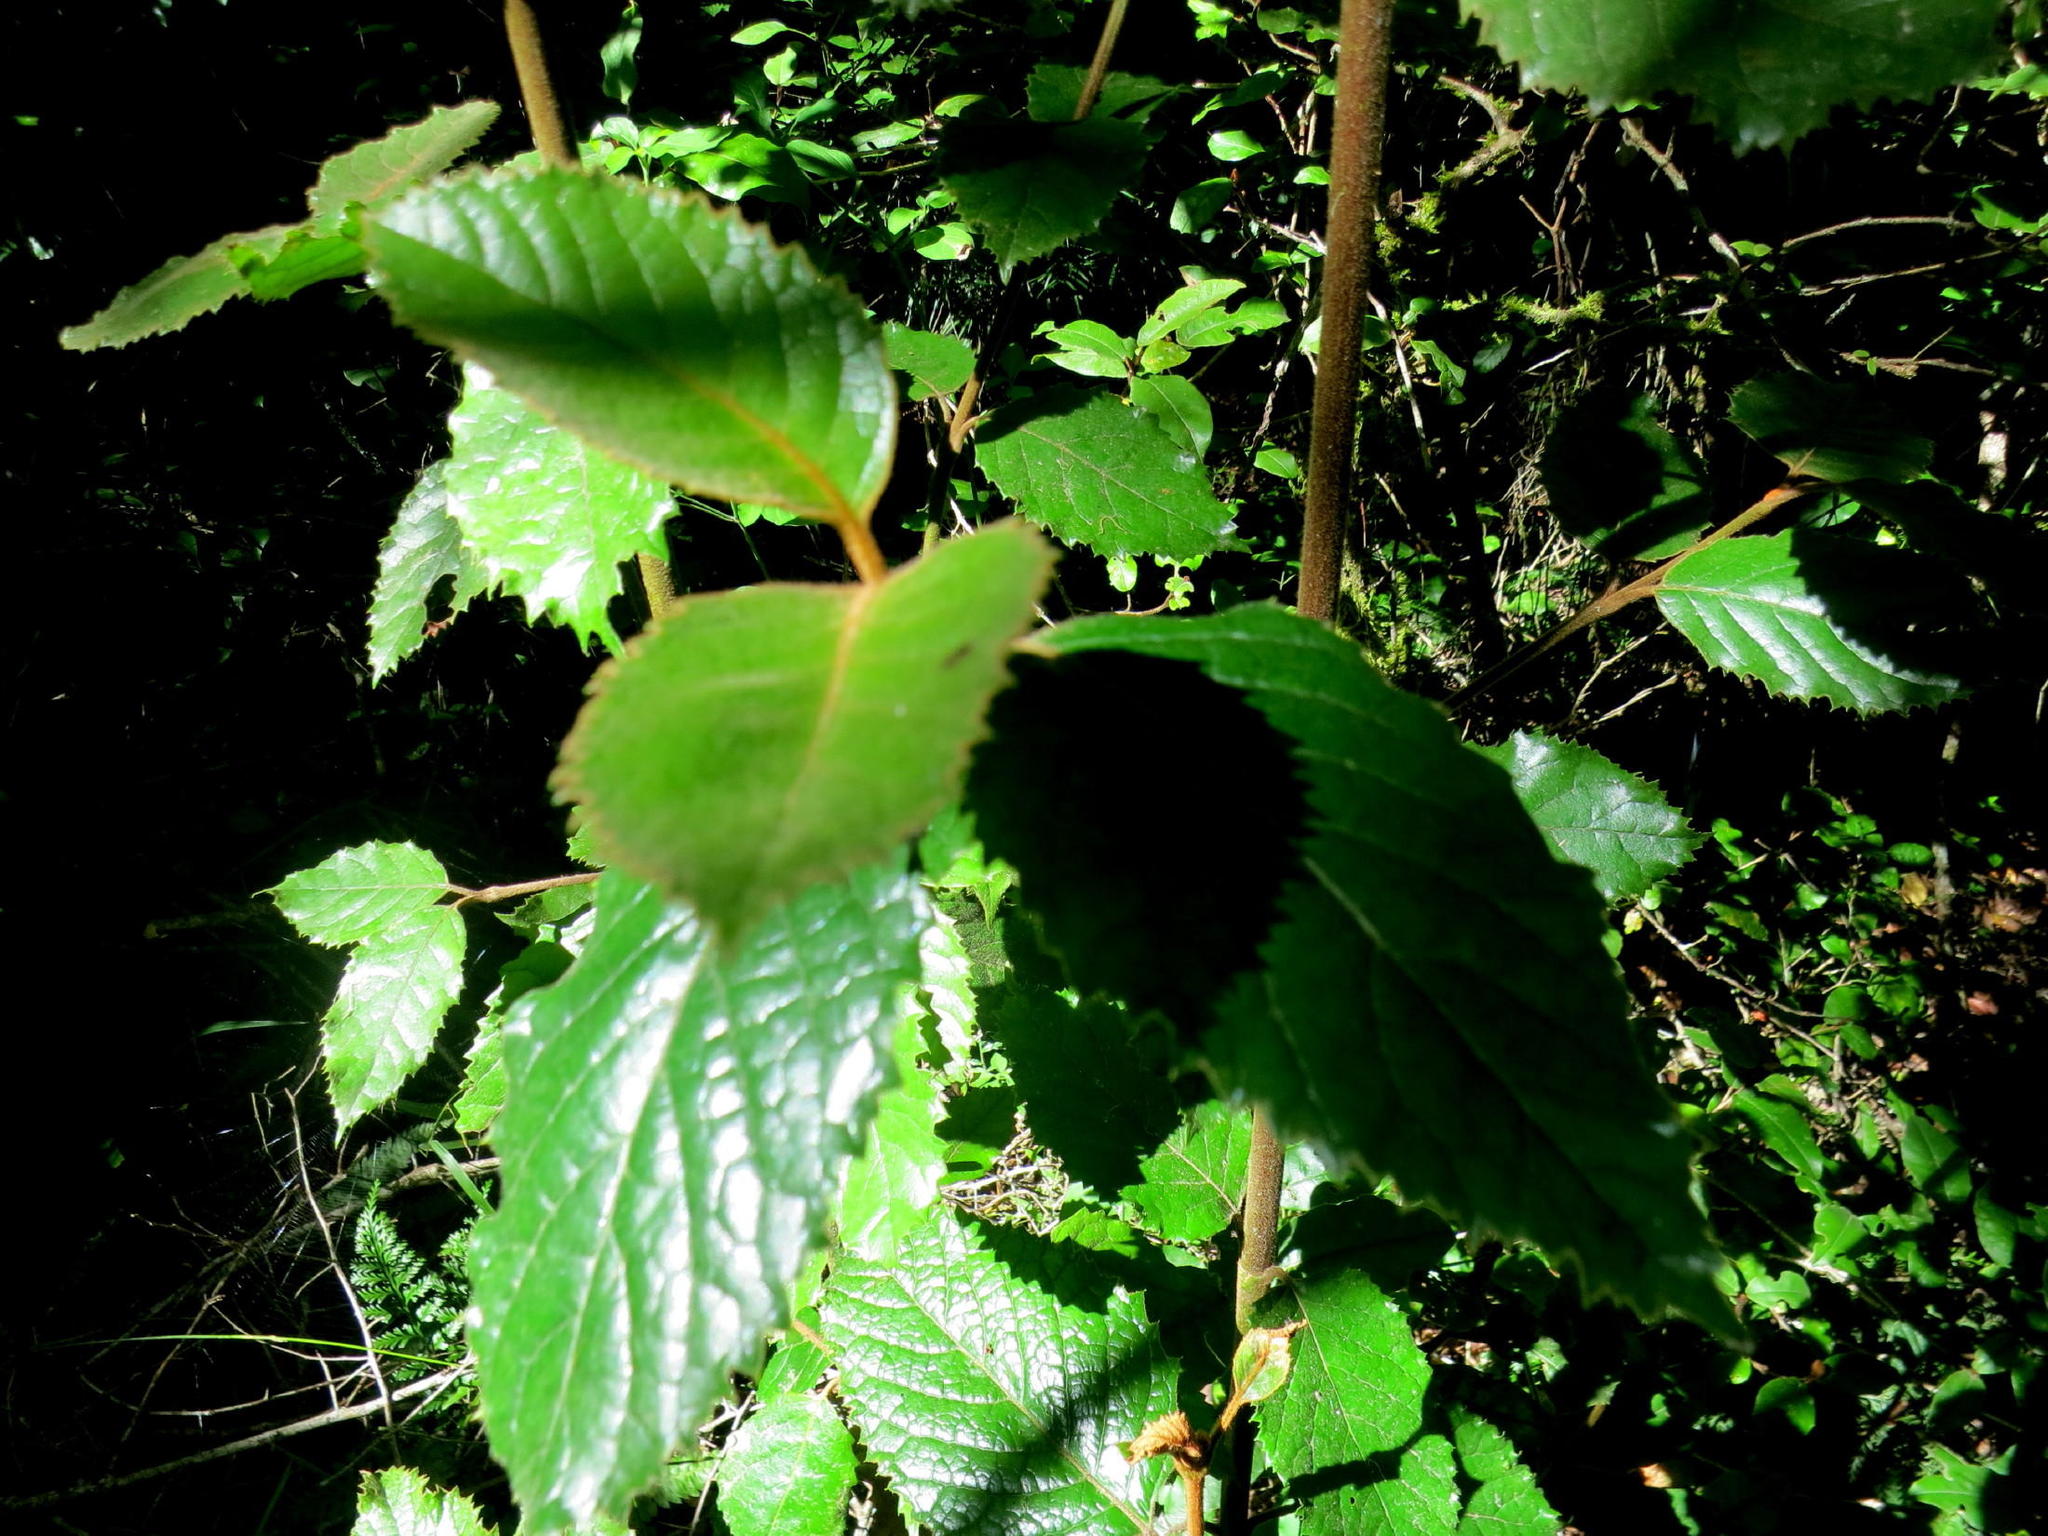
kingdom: Plantae
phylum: Tracheophyta
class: Magnoliopsida
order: Cornales
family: Curtisiaceae
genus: Curtisia
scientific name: Curtisia dentata
